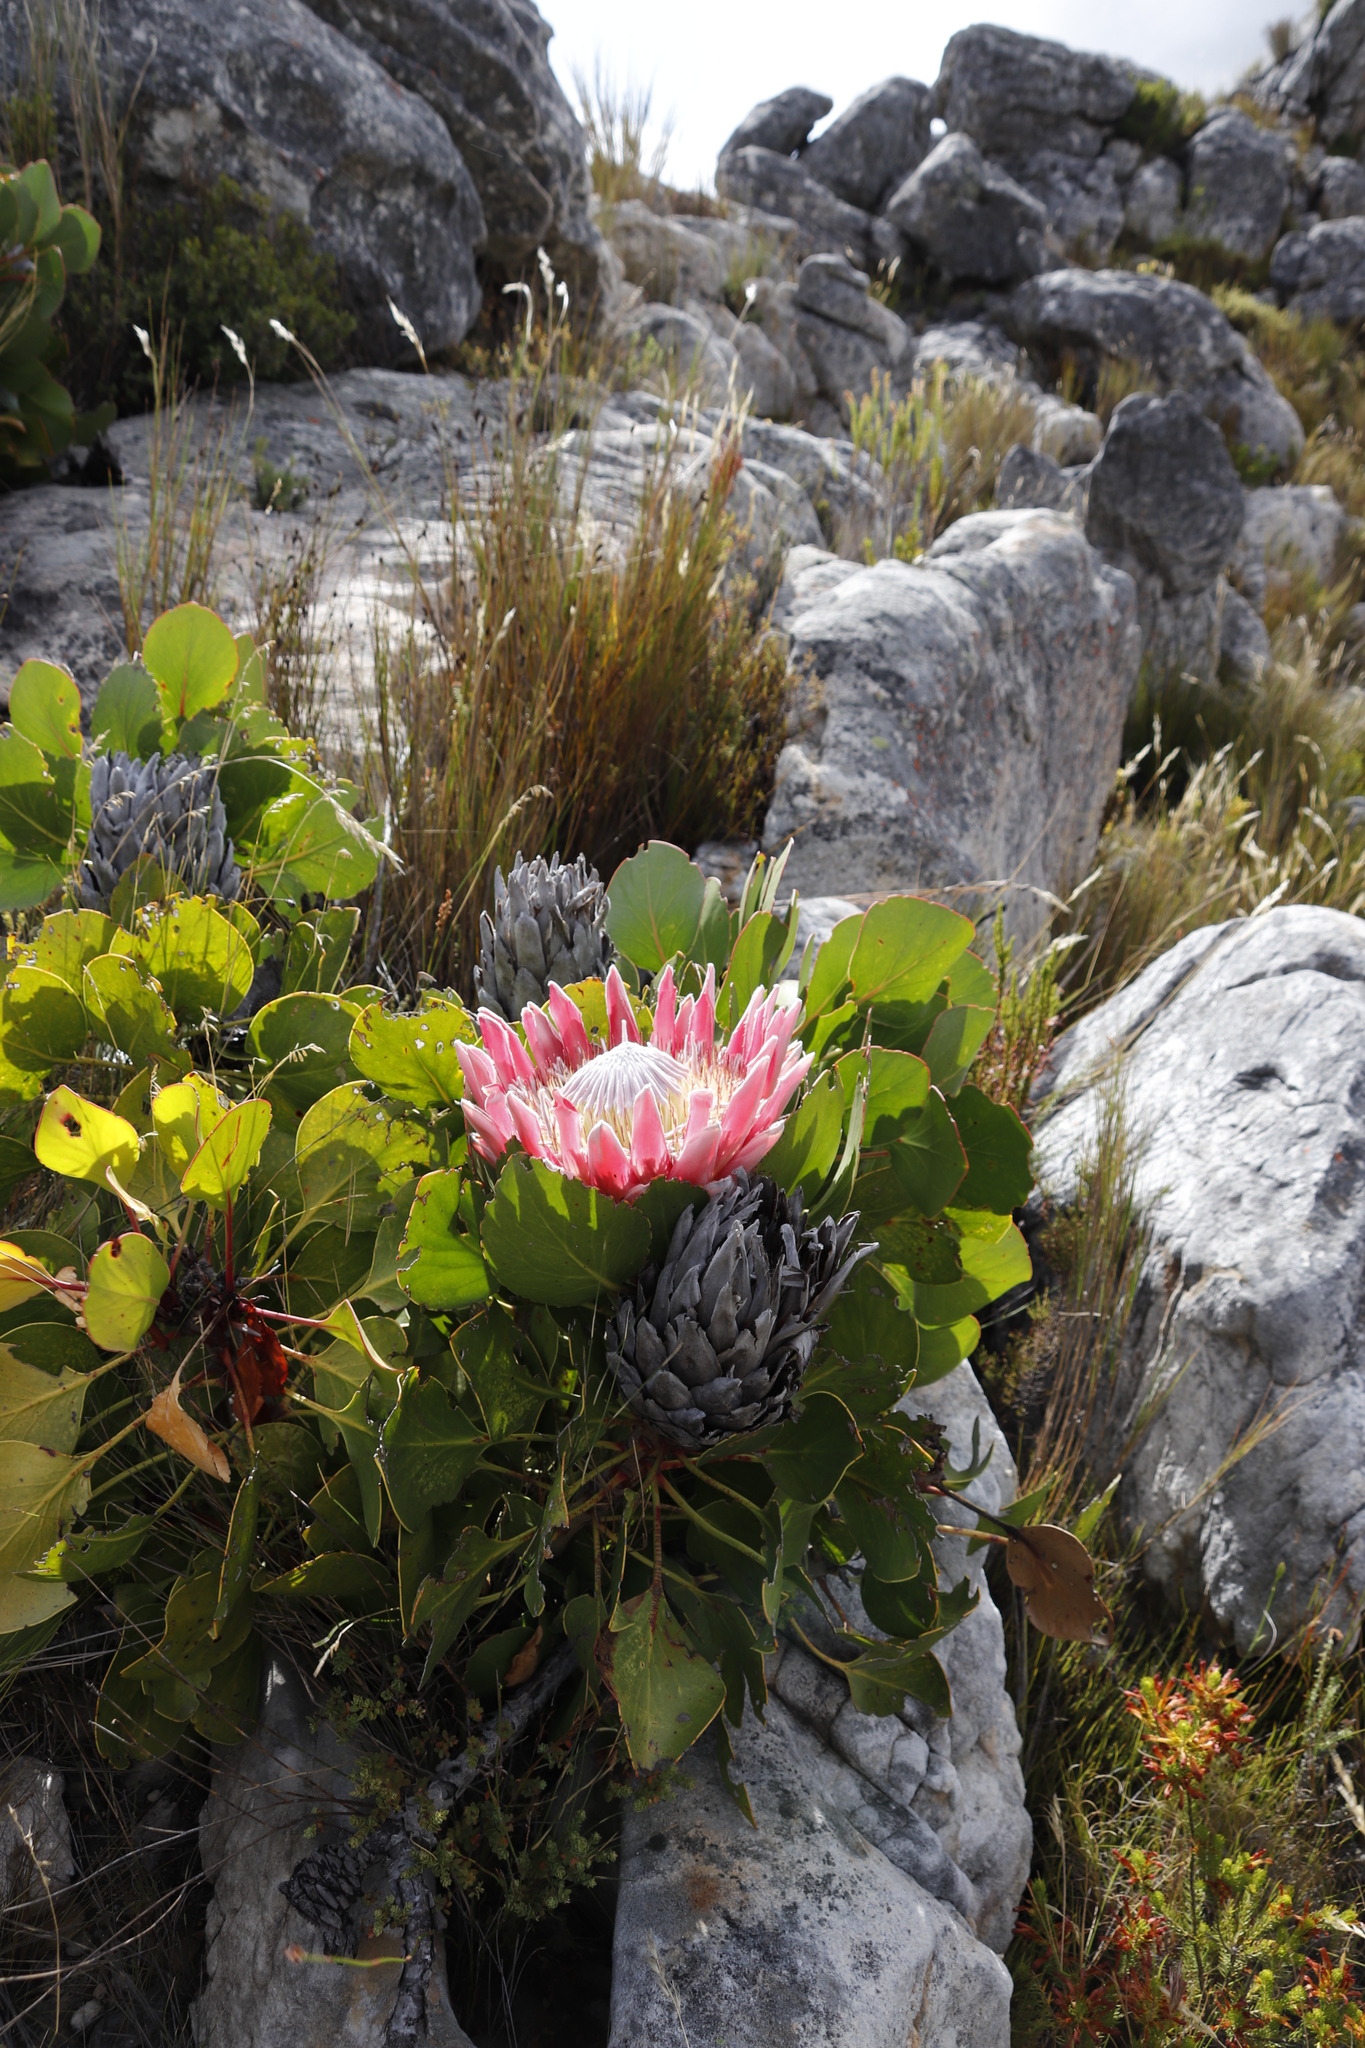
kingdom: Plantae
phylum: Tracheophyta
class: Magnoliopsida
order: Proteales
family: Proteaceae
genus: Protea
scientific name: Protea cynaroides
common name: King protea
